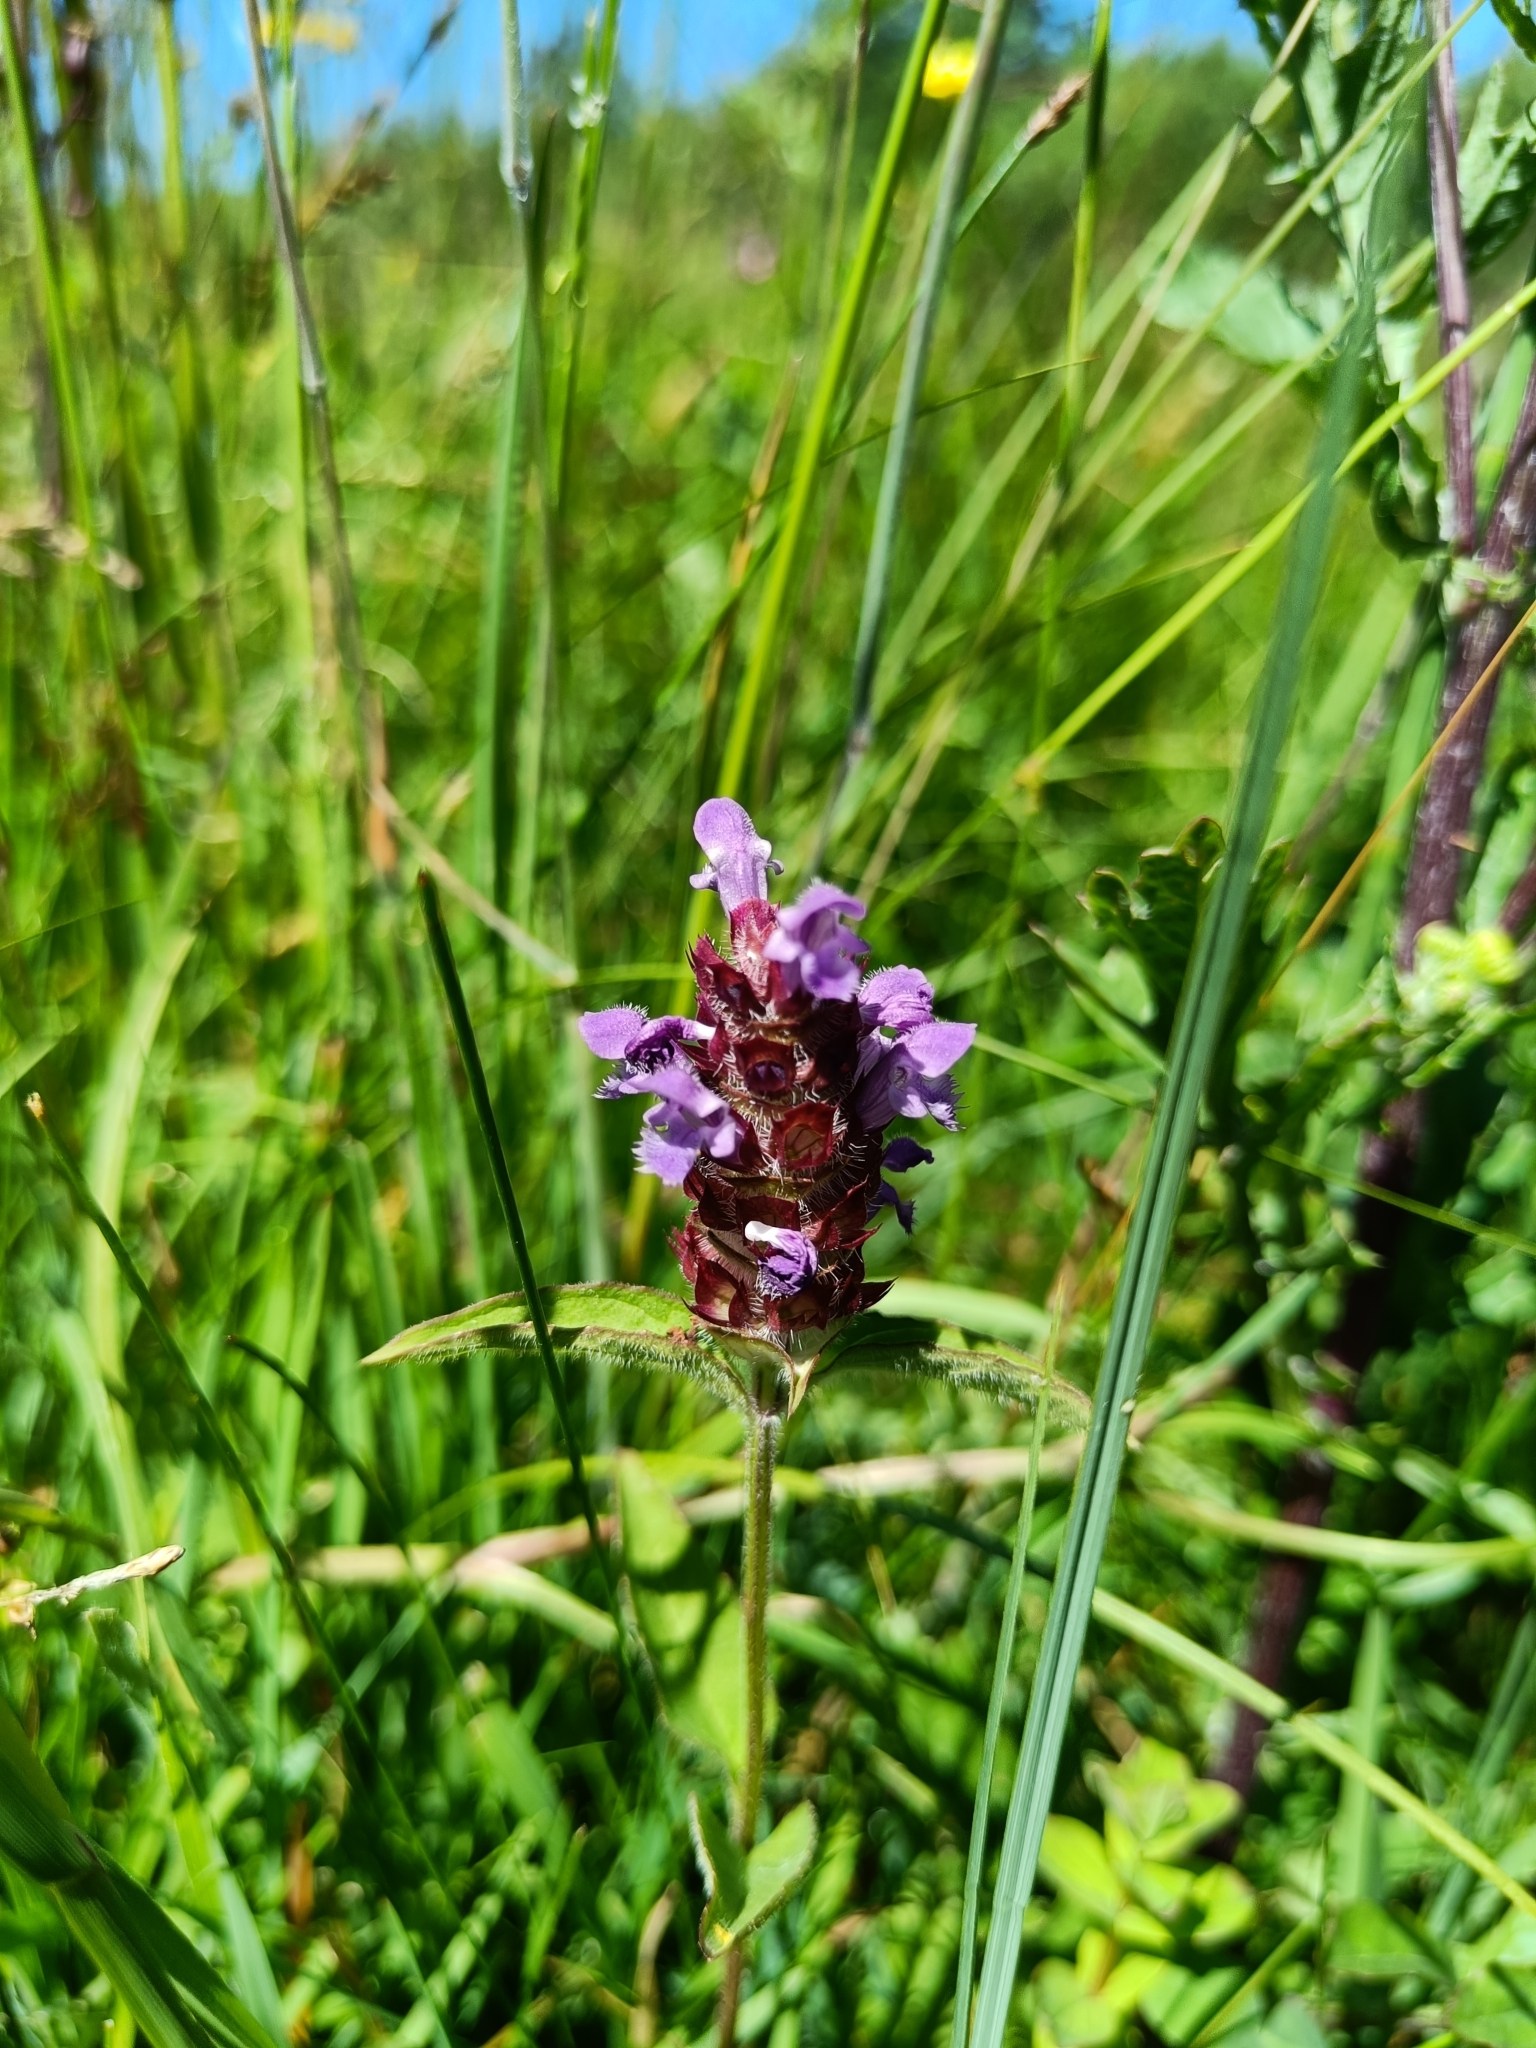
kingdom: Plantae
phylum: Tracheophyta
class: Magnoliopsida
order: Lamiales
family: Lamiaceae
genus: Prunella
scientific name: Prunella vulgaris
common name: Heal-all
